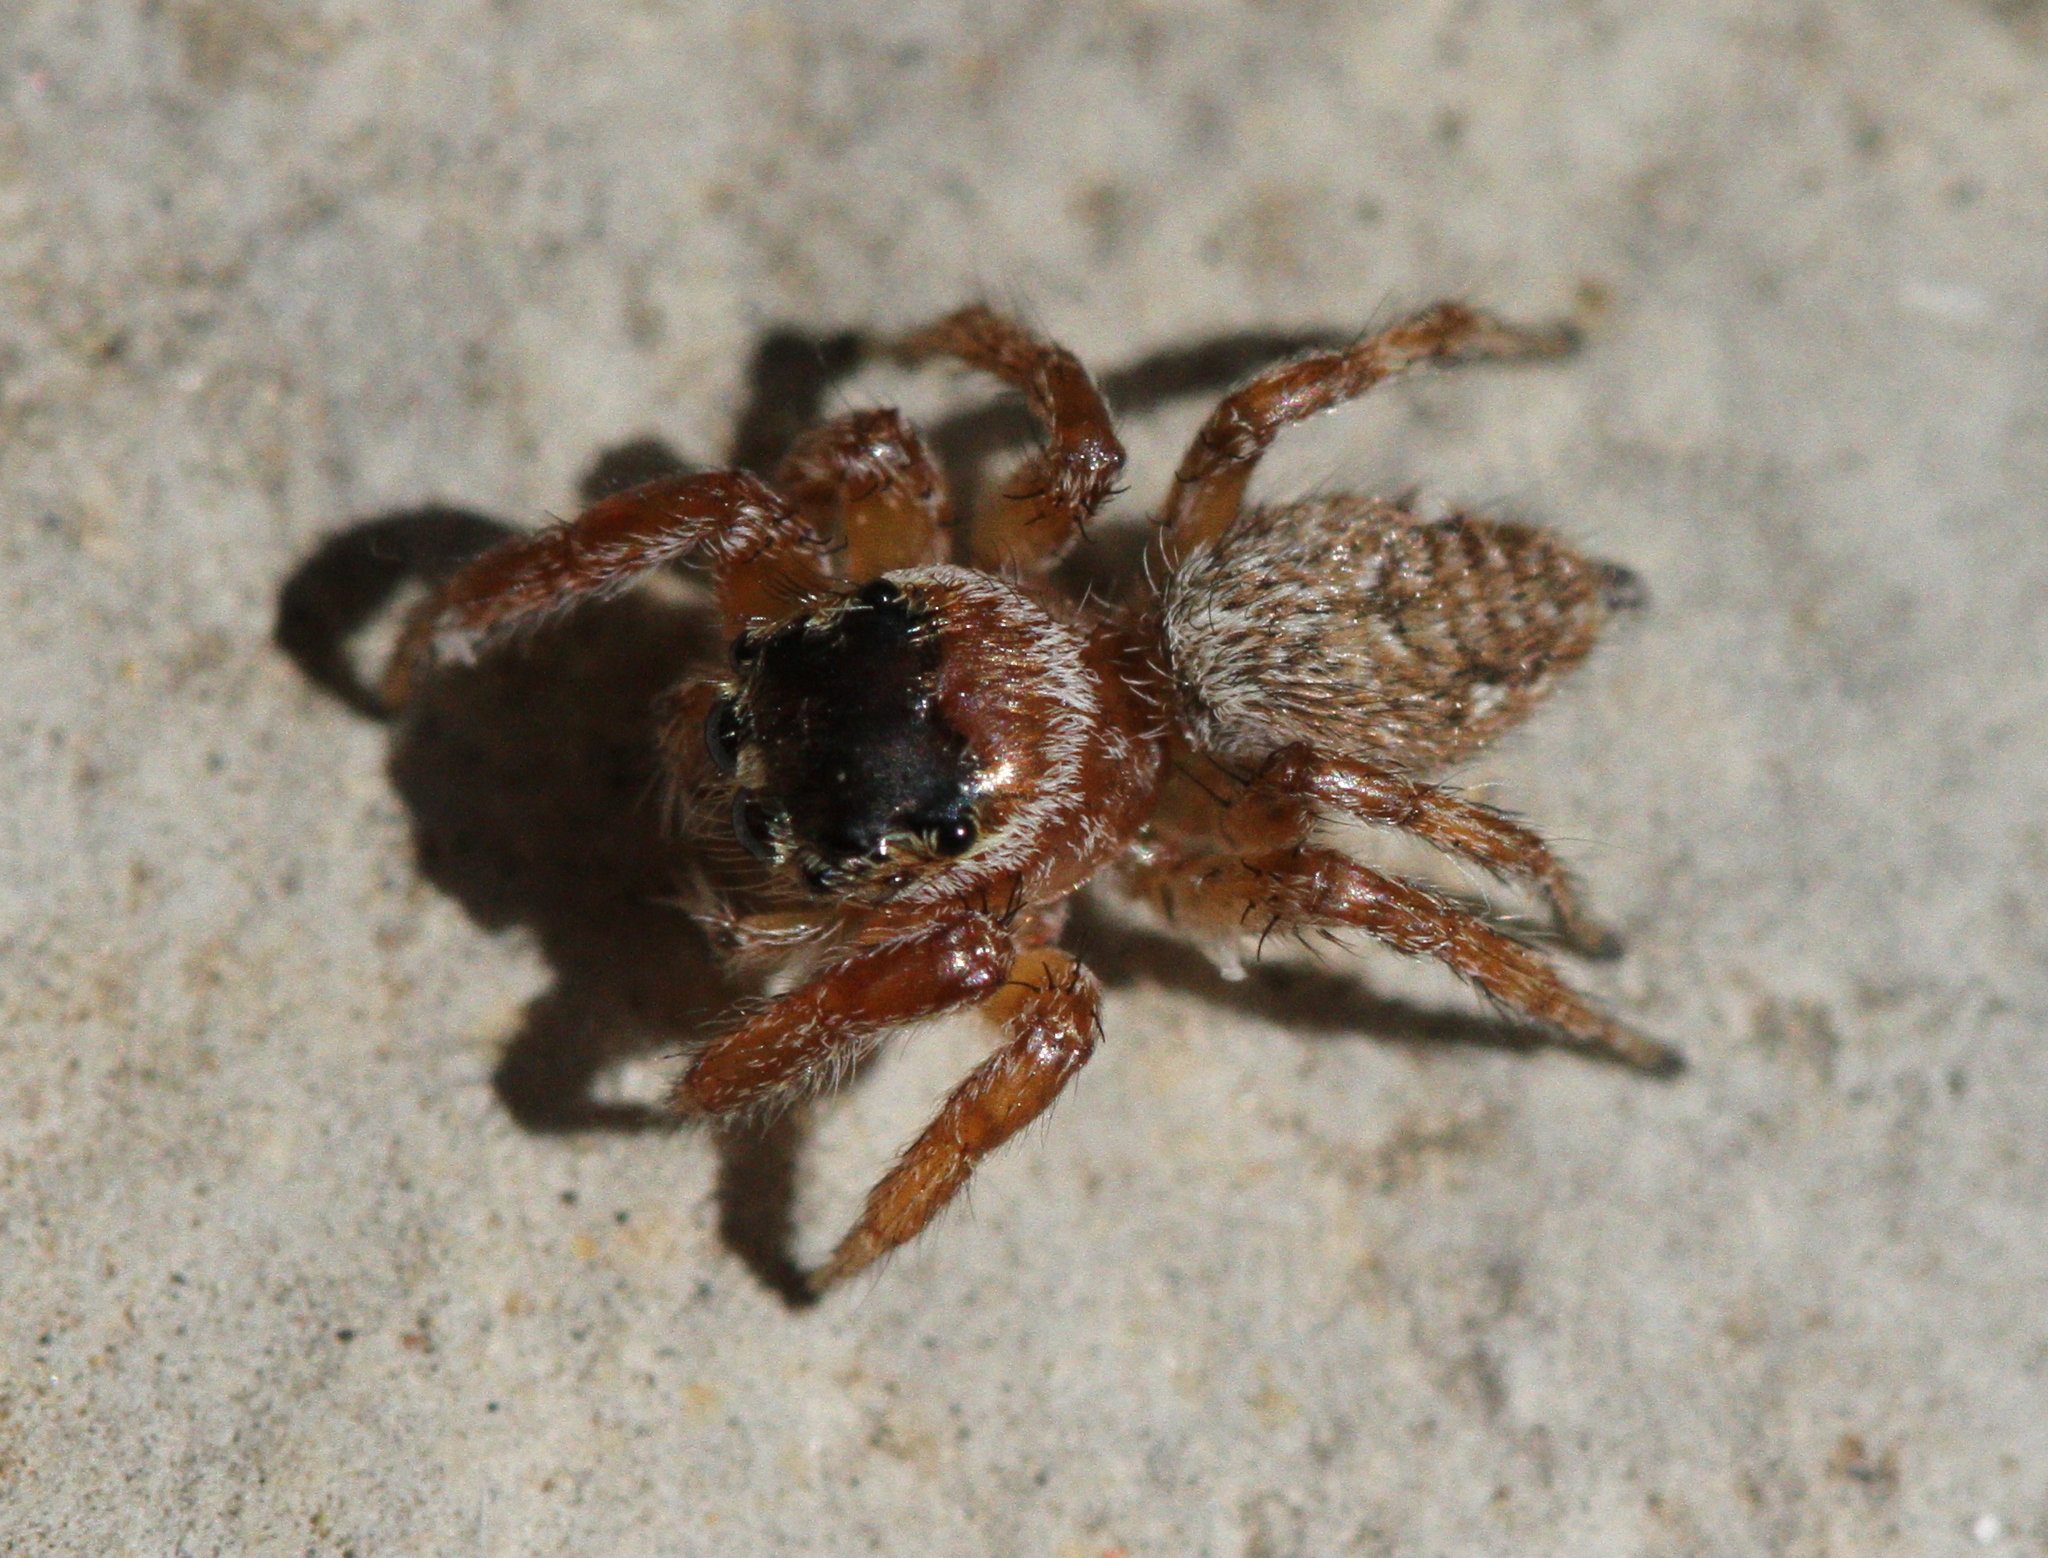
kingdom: Animalia
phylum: Arthropoda
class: Arachnida
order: Araneae
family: Salticidae
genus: Evarcha
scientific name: Evarcha jucunda
